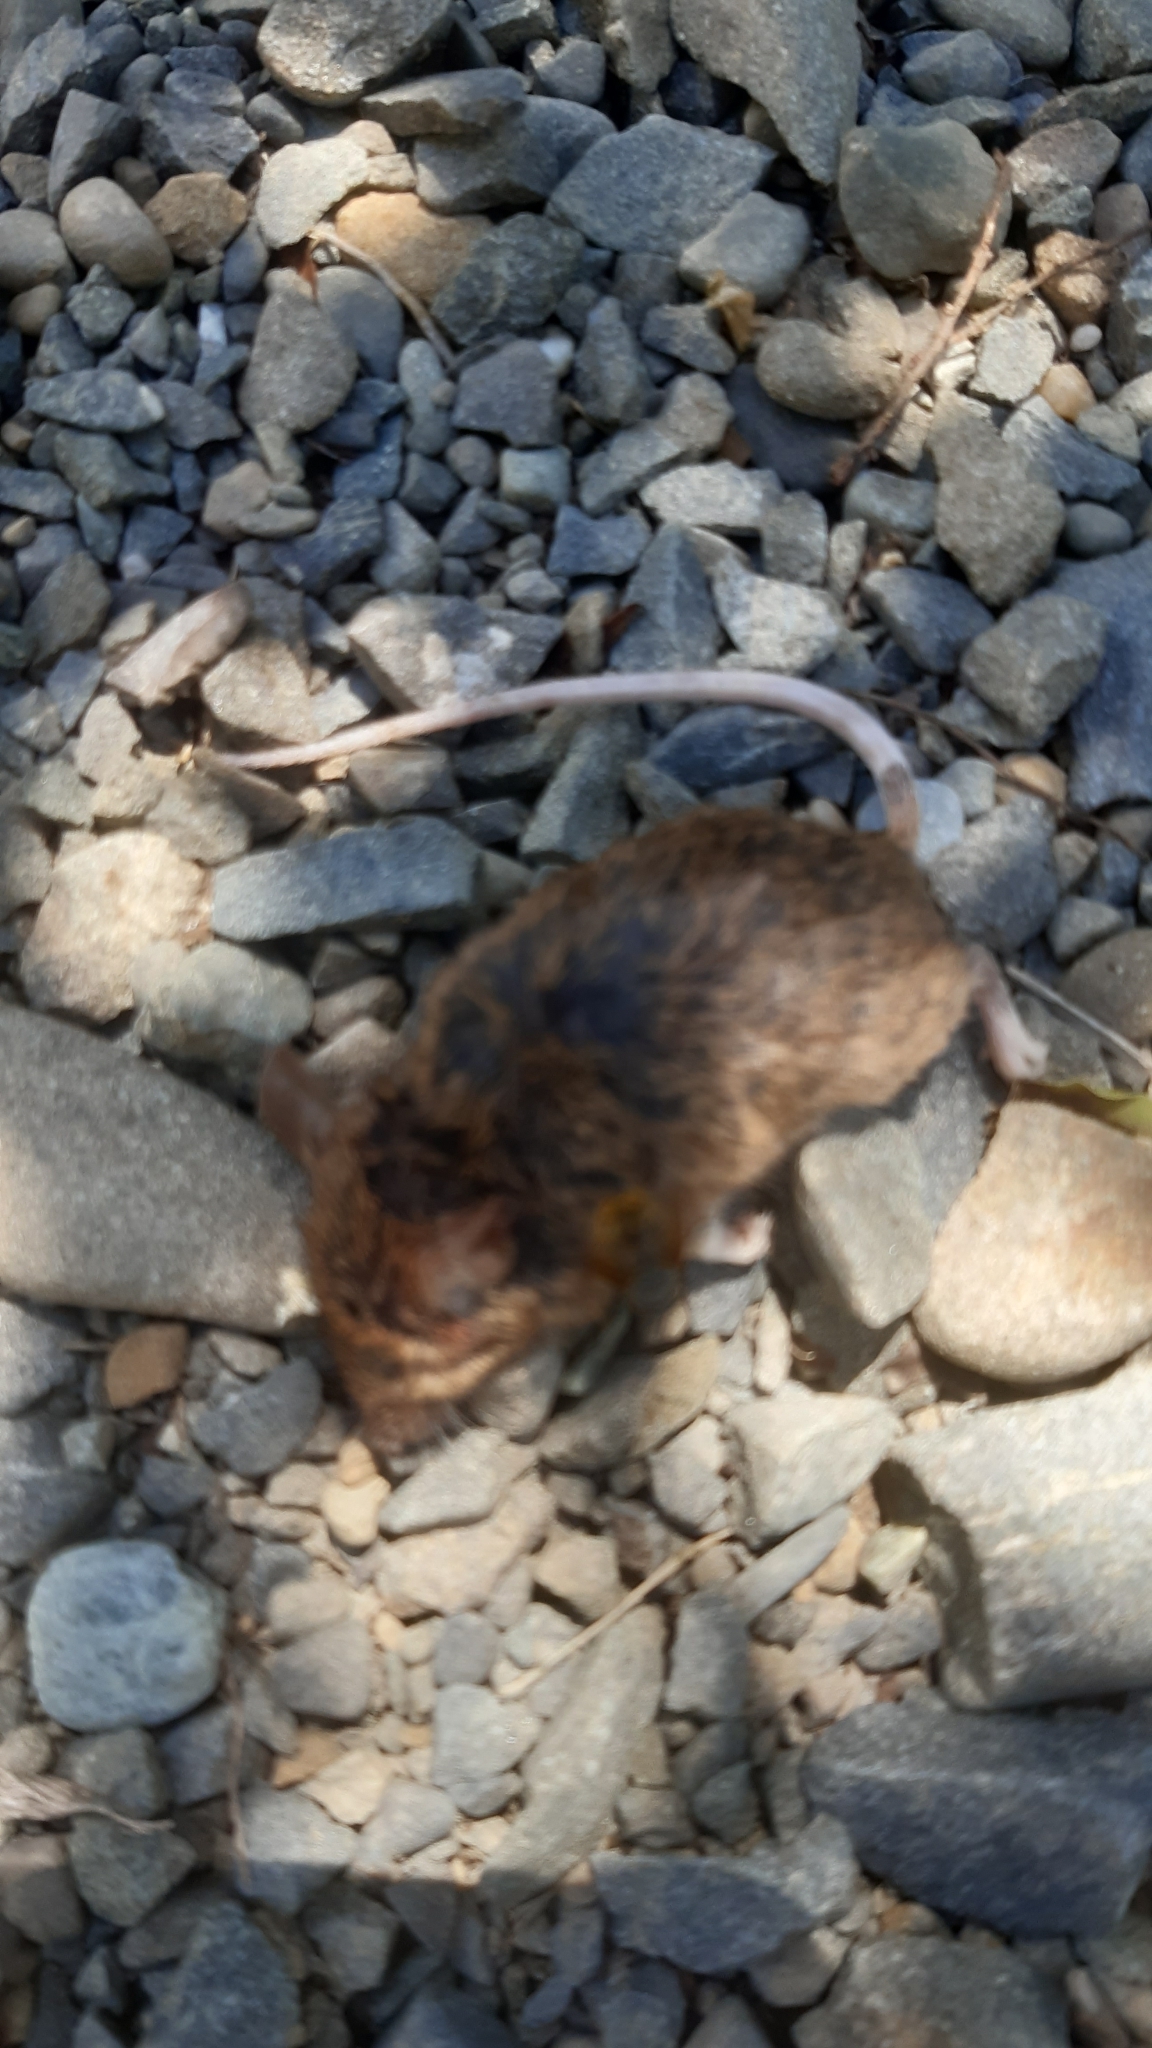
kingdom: Animalia
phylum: Chordata
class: Mammalia
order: Rodentia
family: Muridae
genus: Mus
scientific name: Mus musculus
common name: House mouse
